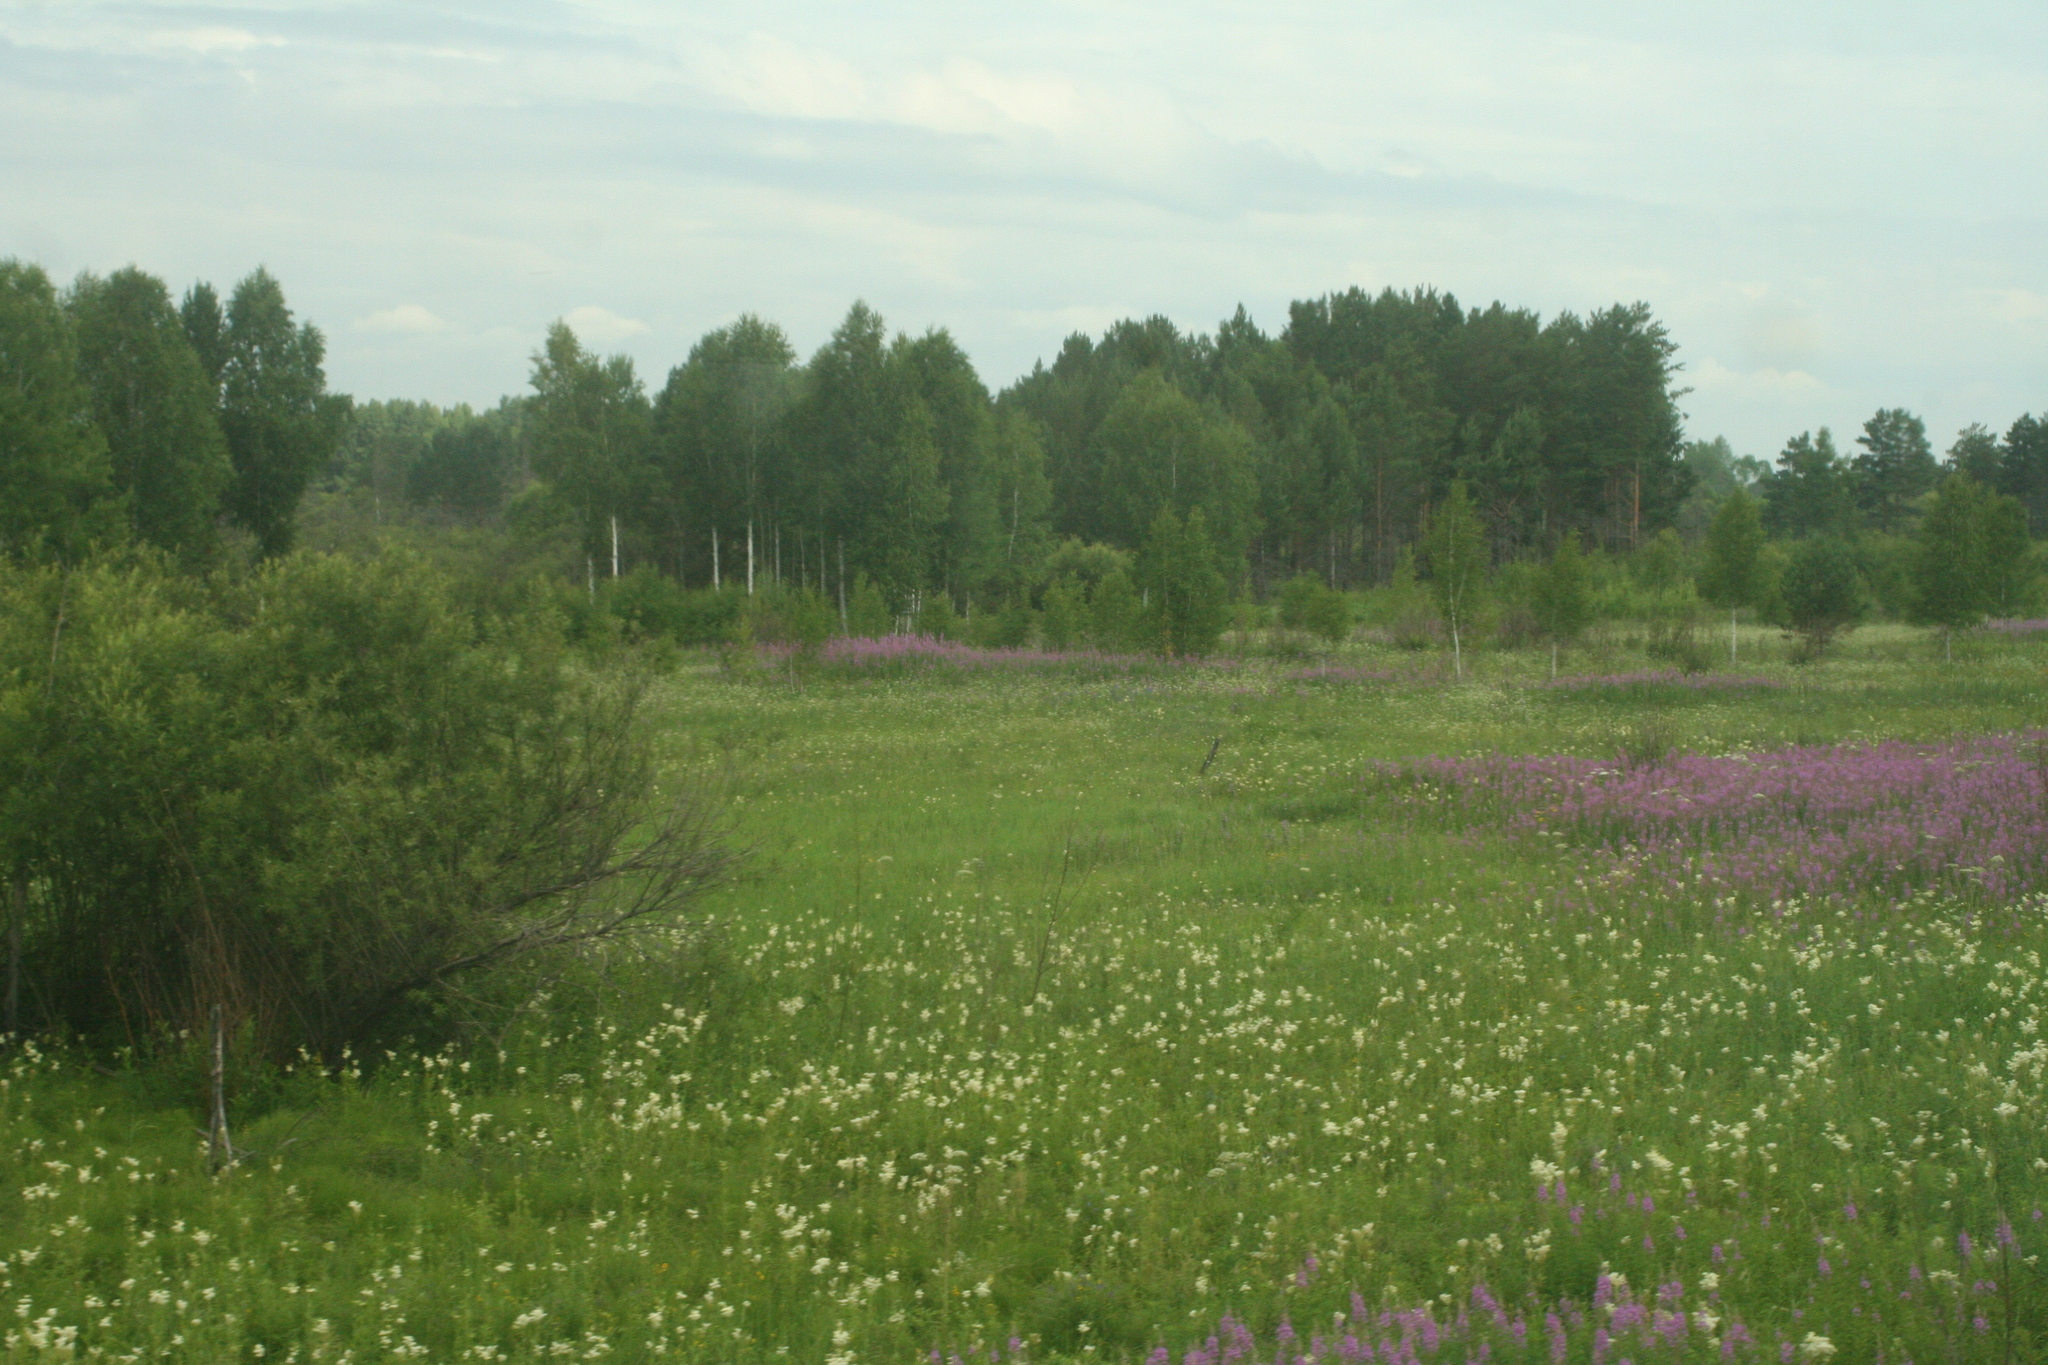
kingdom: Plantae
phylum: Tracheophyta
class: Magnoliopsida
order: Rosales
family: Rosaceae
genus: Filipendula
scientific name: Filipendula ulmaria
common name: Meadowsweet
